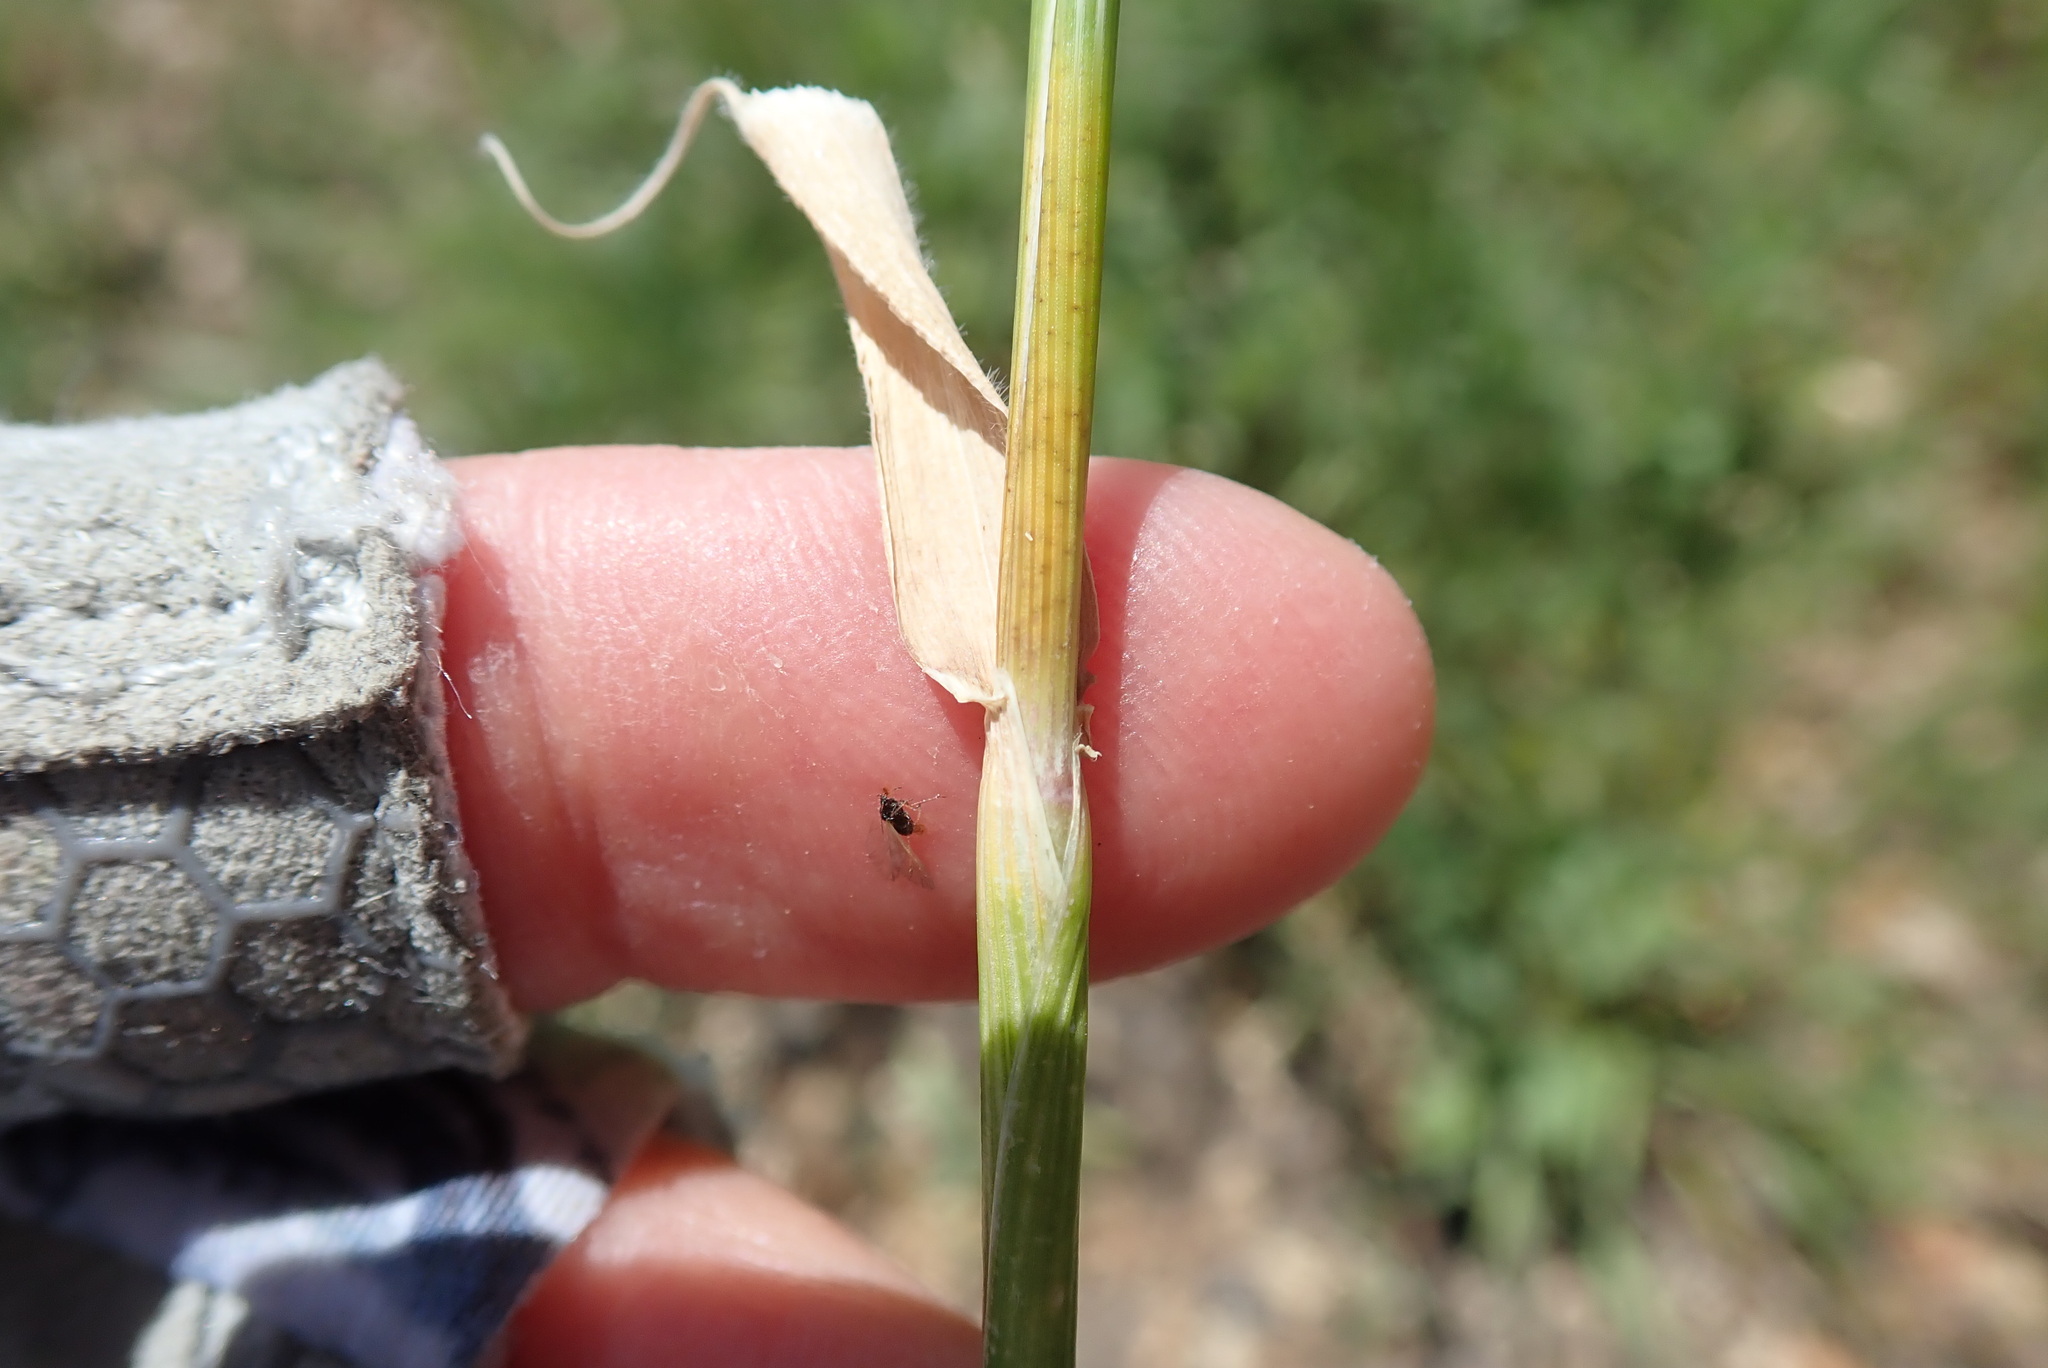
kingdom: Plantae
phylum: Tracheophyta
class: Liliopsida
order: Poales
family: Poaceae
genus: Hordeum
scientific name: Hordeum murinum
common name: Wall barley
